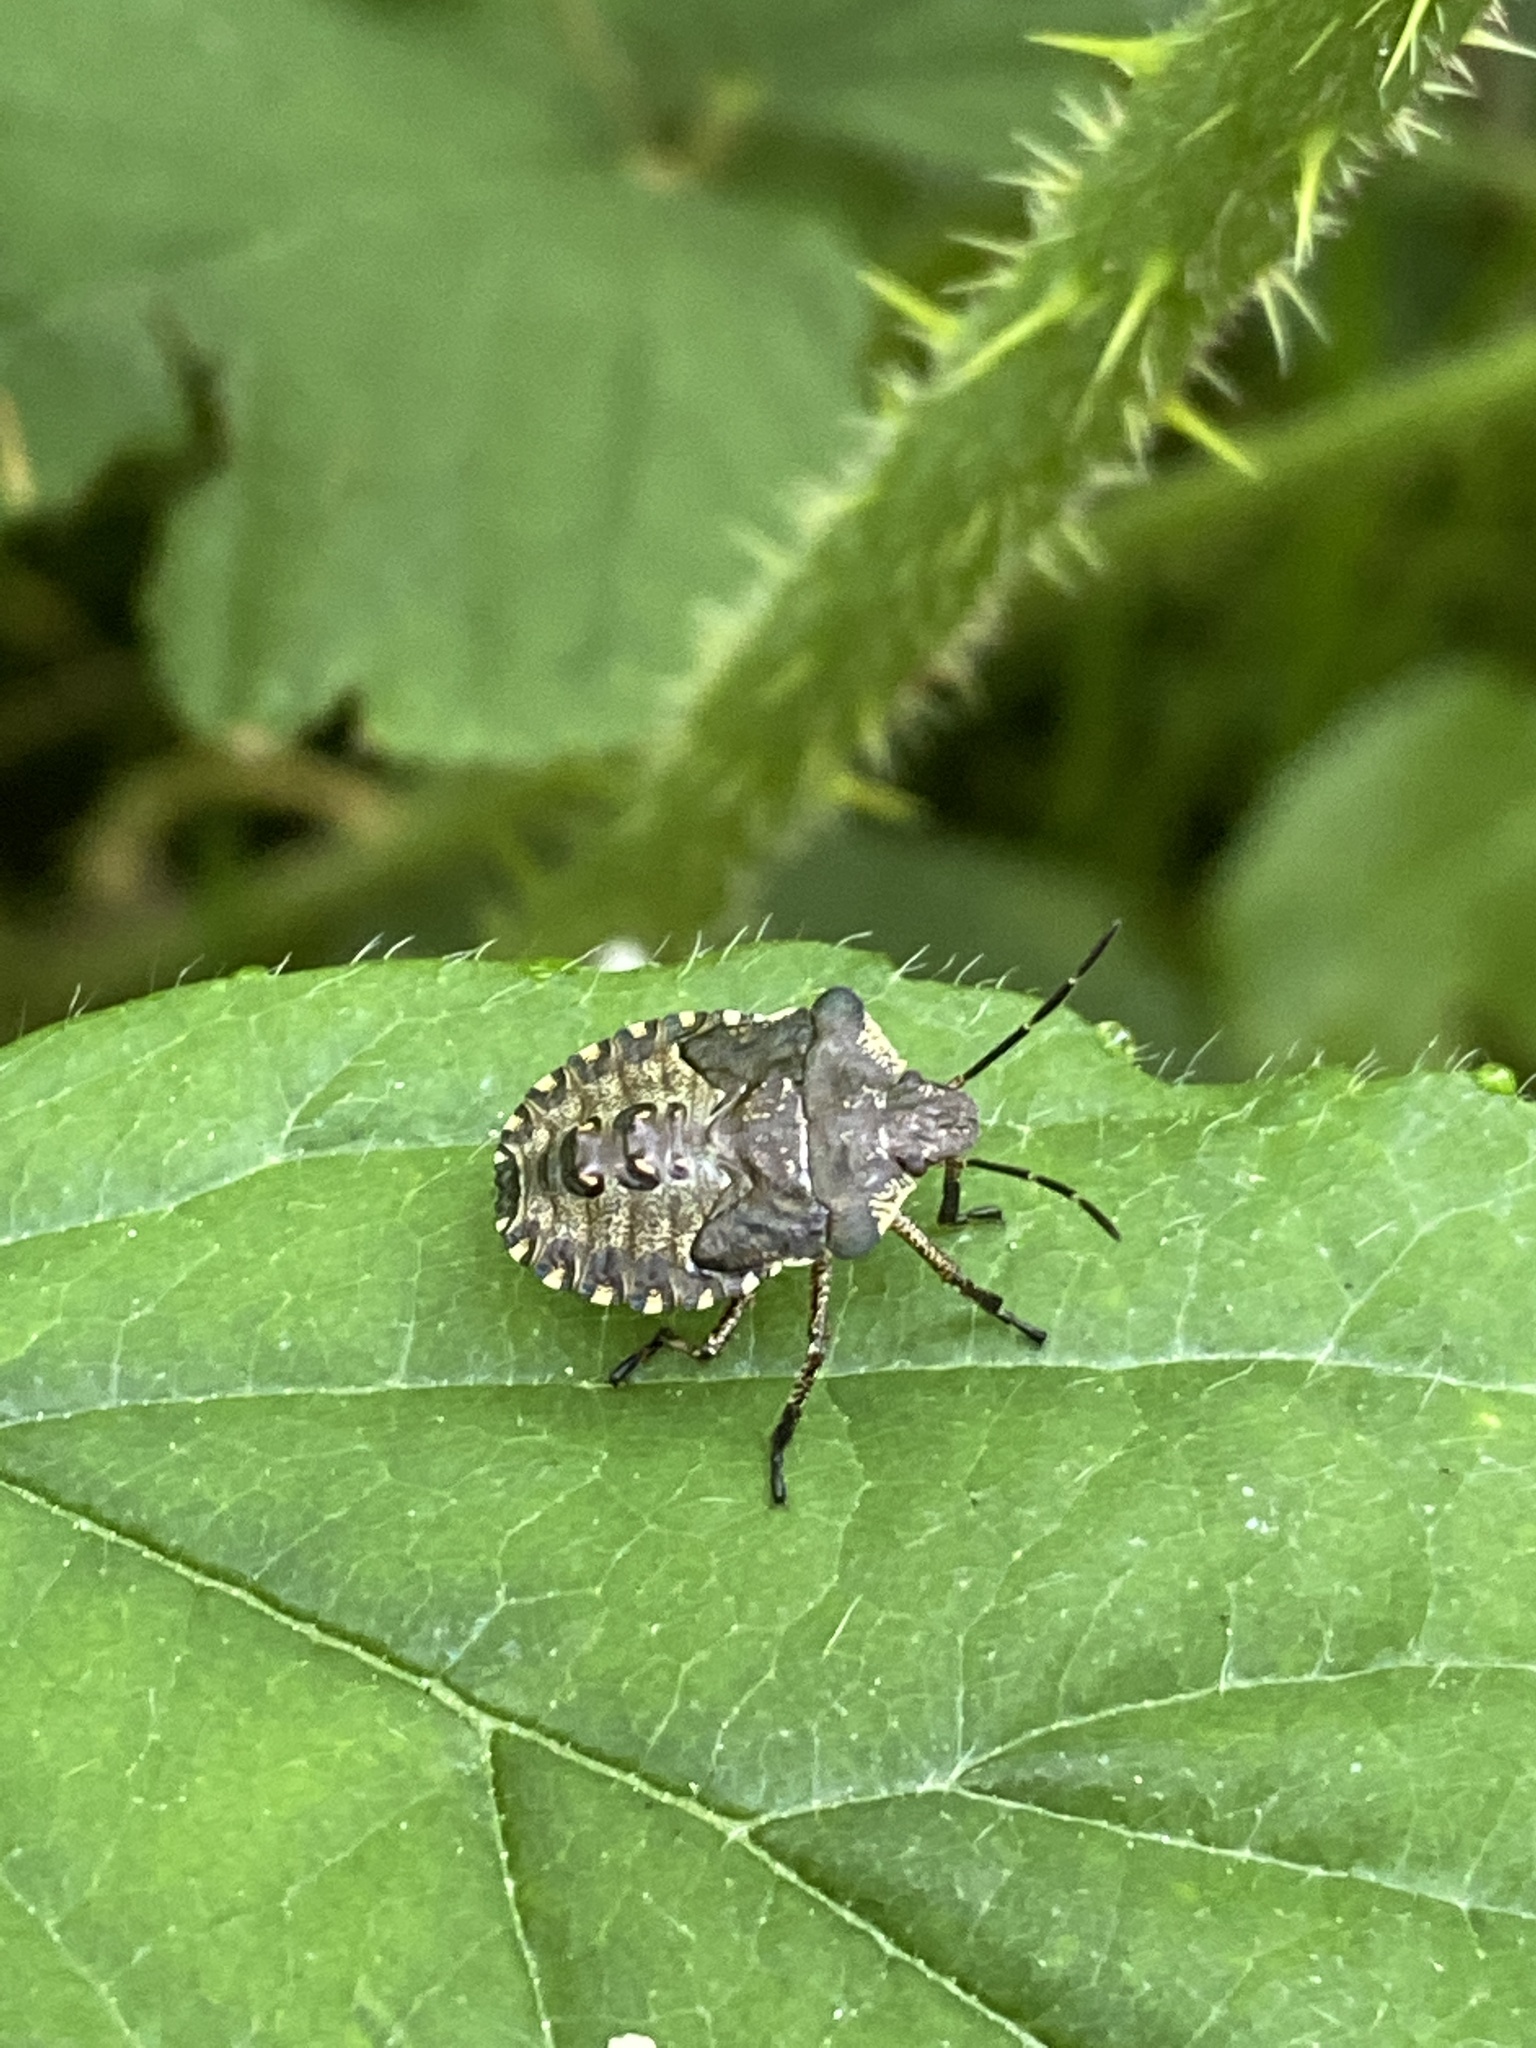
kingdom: Animalia
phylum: Arthropoda
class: Insecta
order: Hemiptera
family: Pentatomidae
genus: Pentatoma
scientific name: Pentatoma rufipes
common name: Forest bug
